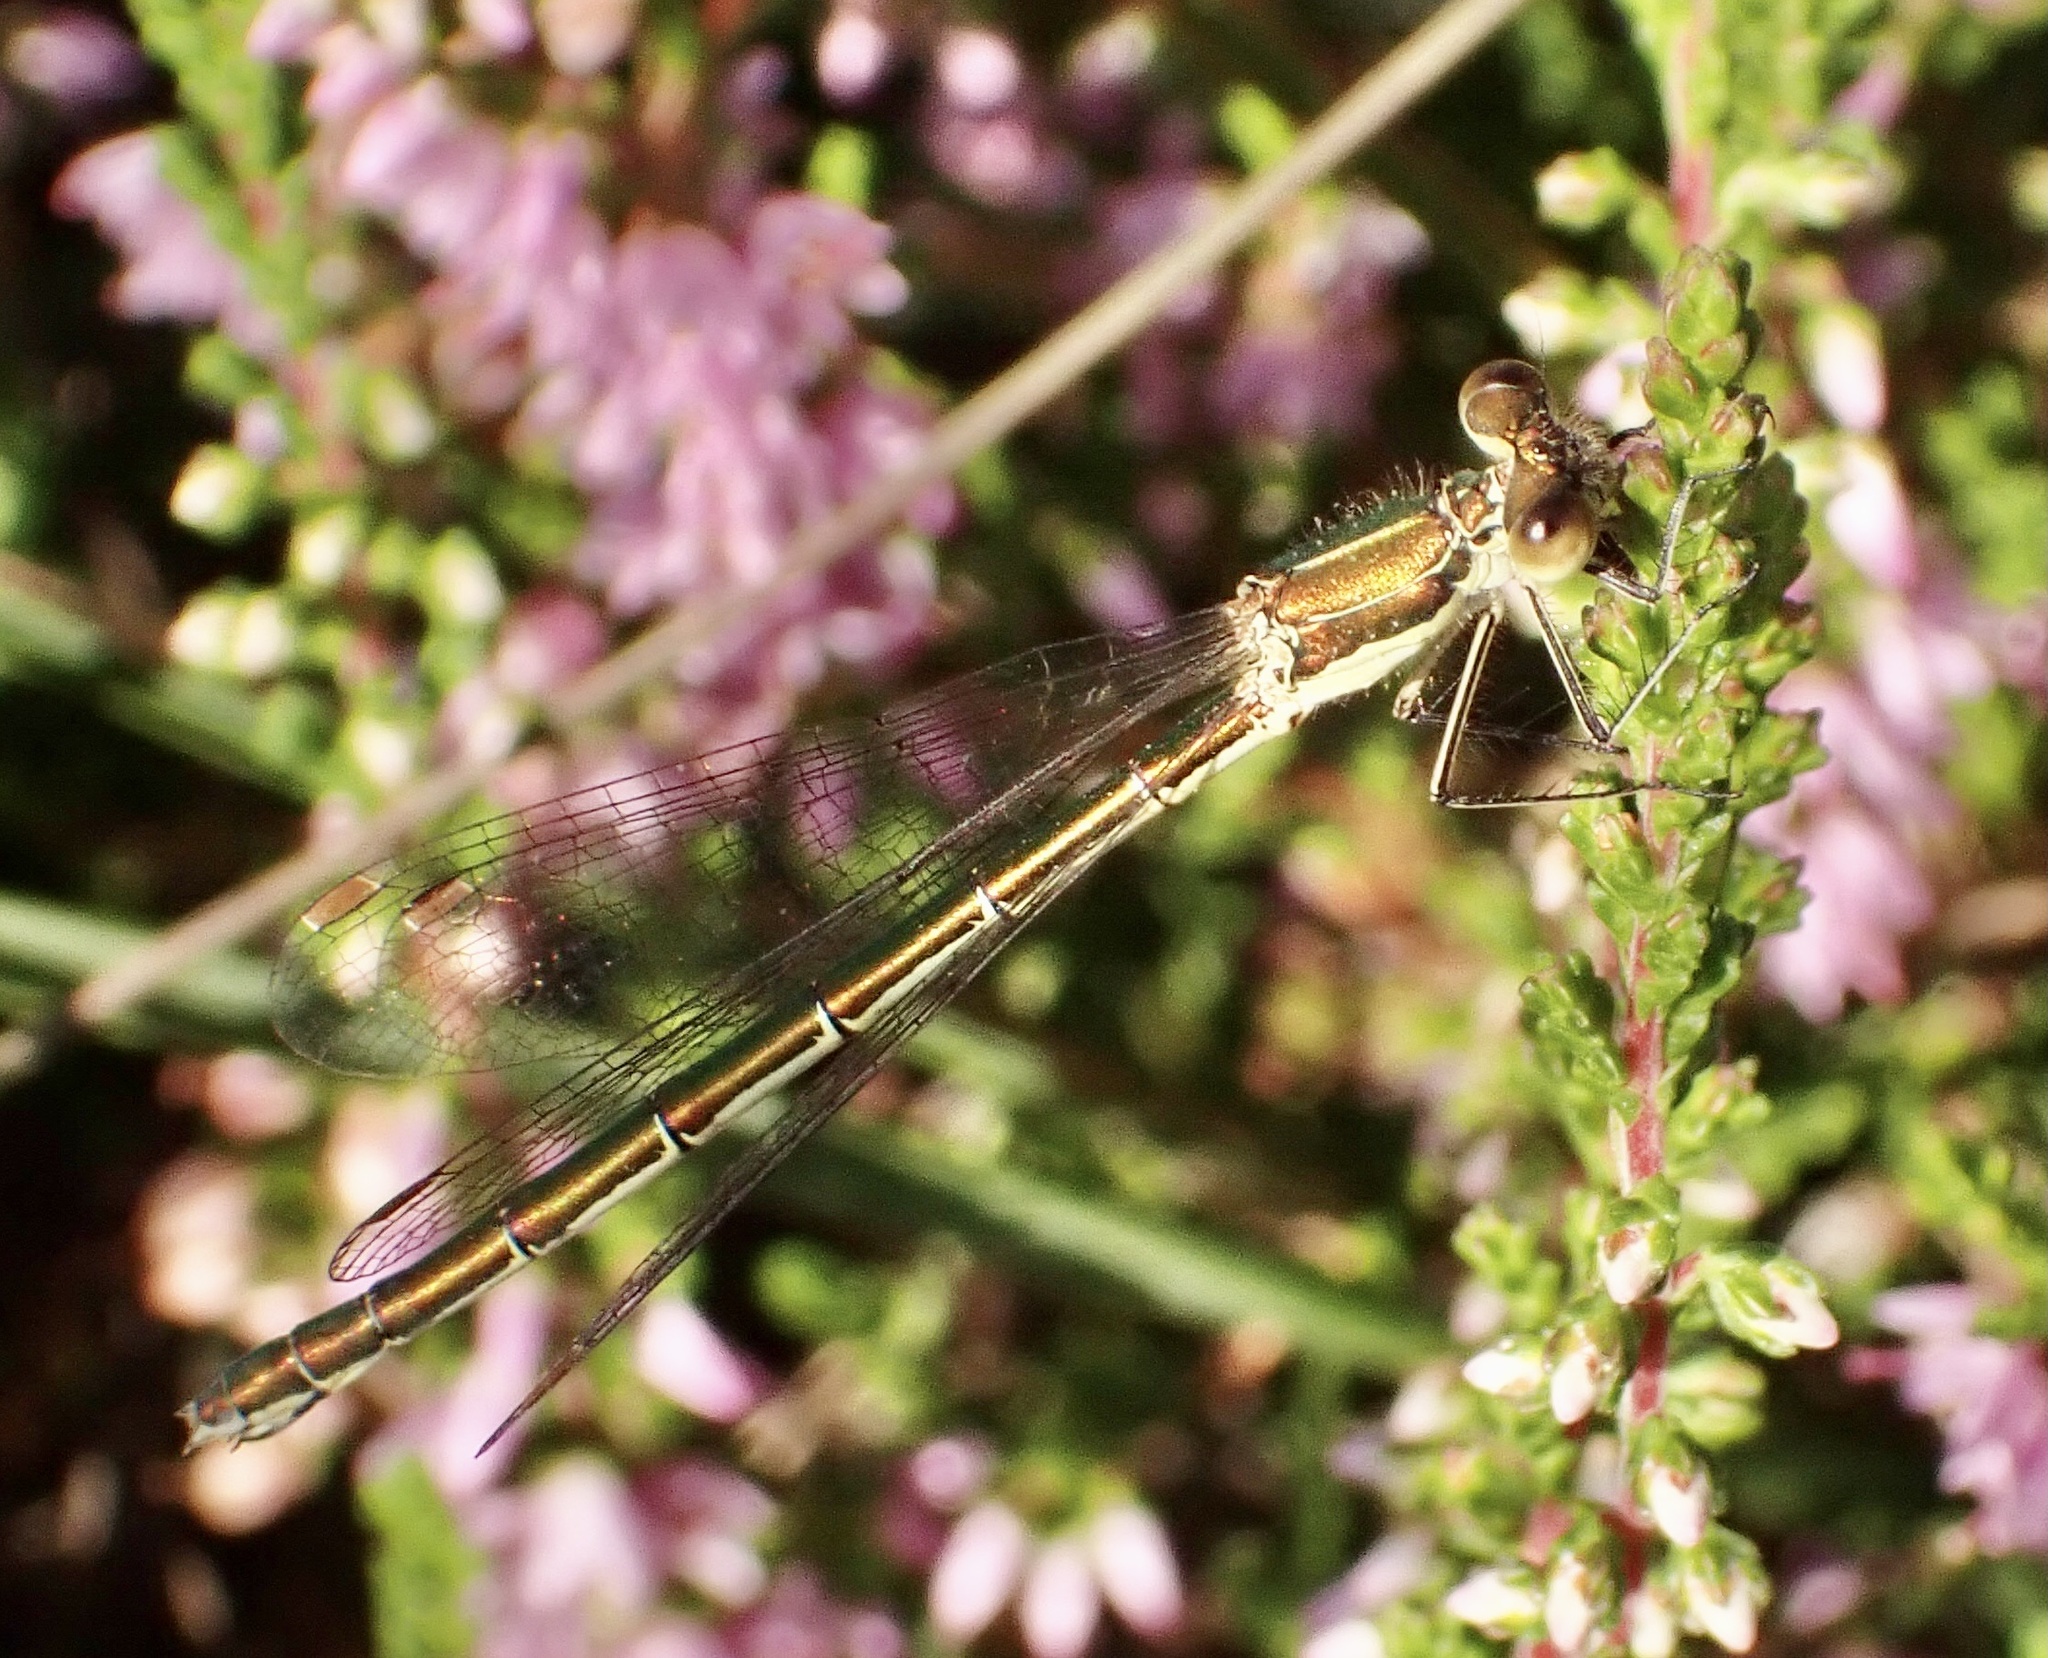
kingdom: Animalia
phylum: Arthropoda
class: Insecta
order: Odonata
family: Lestidae
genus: Lestes
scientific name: Lestes virens
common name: Small emerald spreadwing
